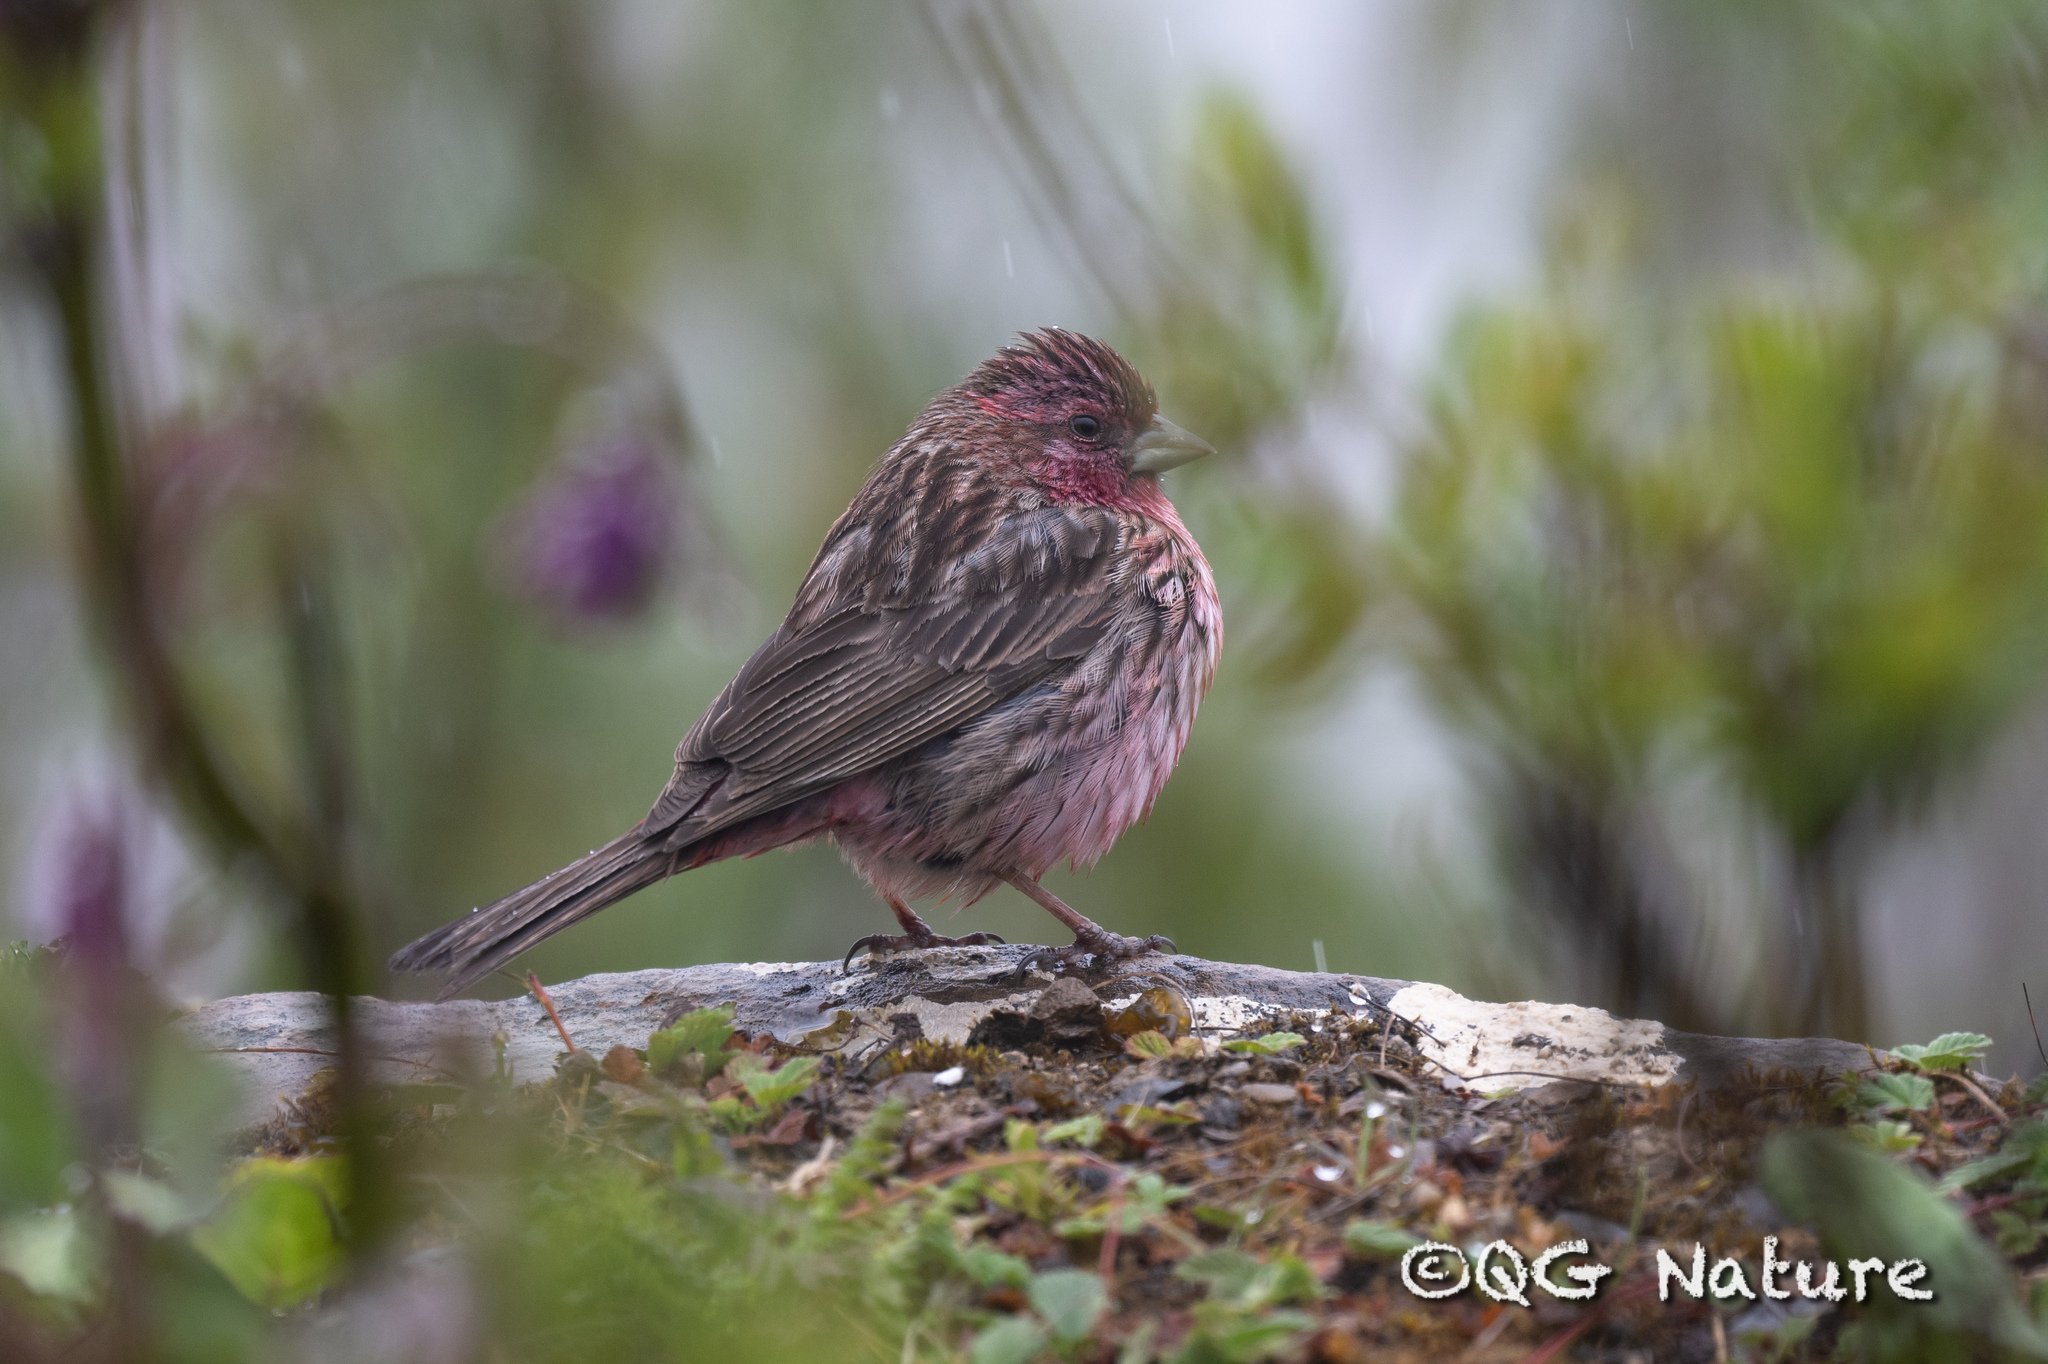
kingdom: Animalia
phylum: Chordata
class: Aves
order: Passeriformes
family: Fringillidae
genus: Carpodacus
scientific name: Carpodacus waltoni
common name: Pink-rumped rosefinch
